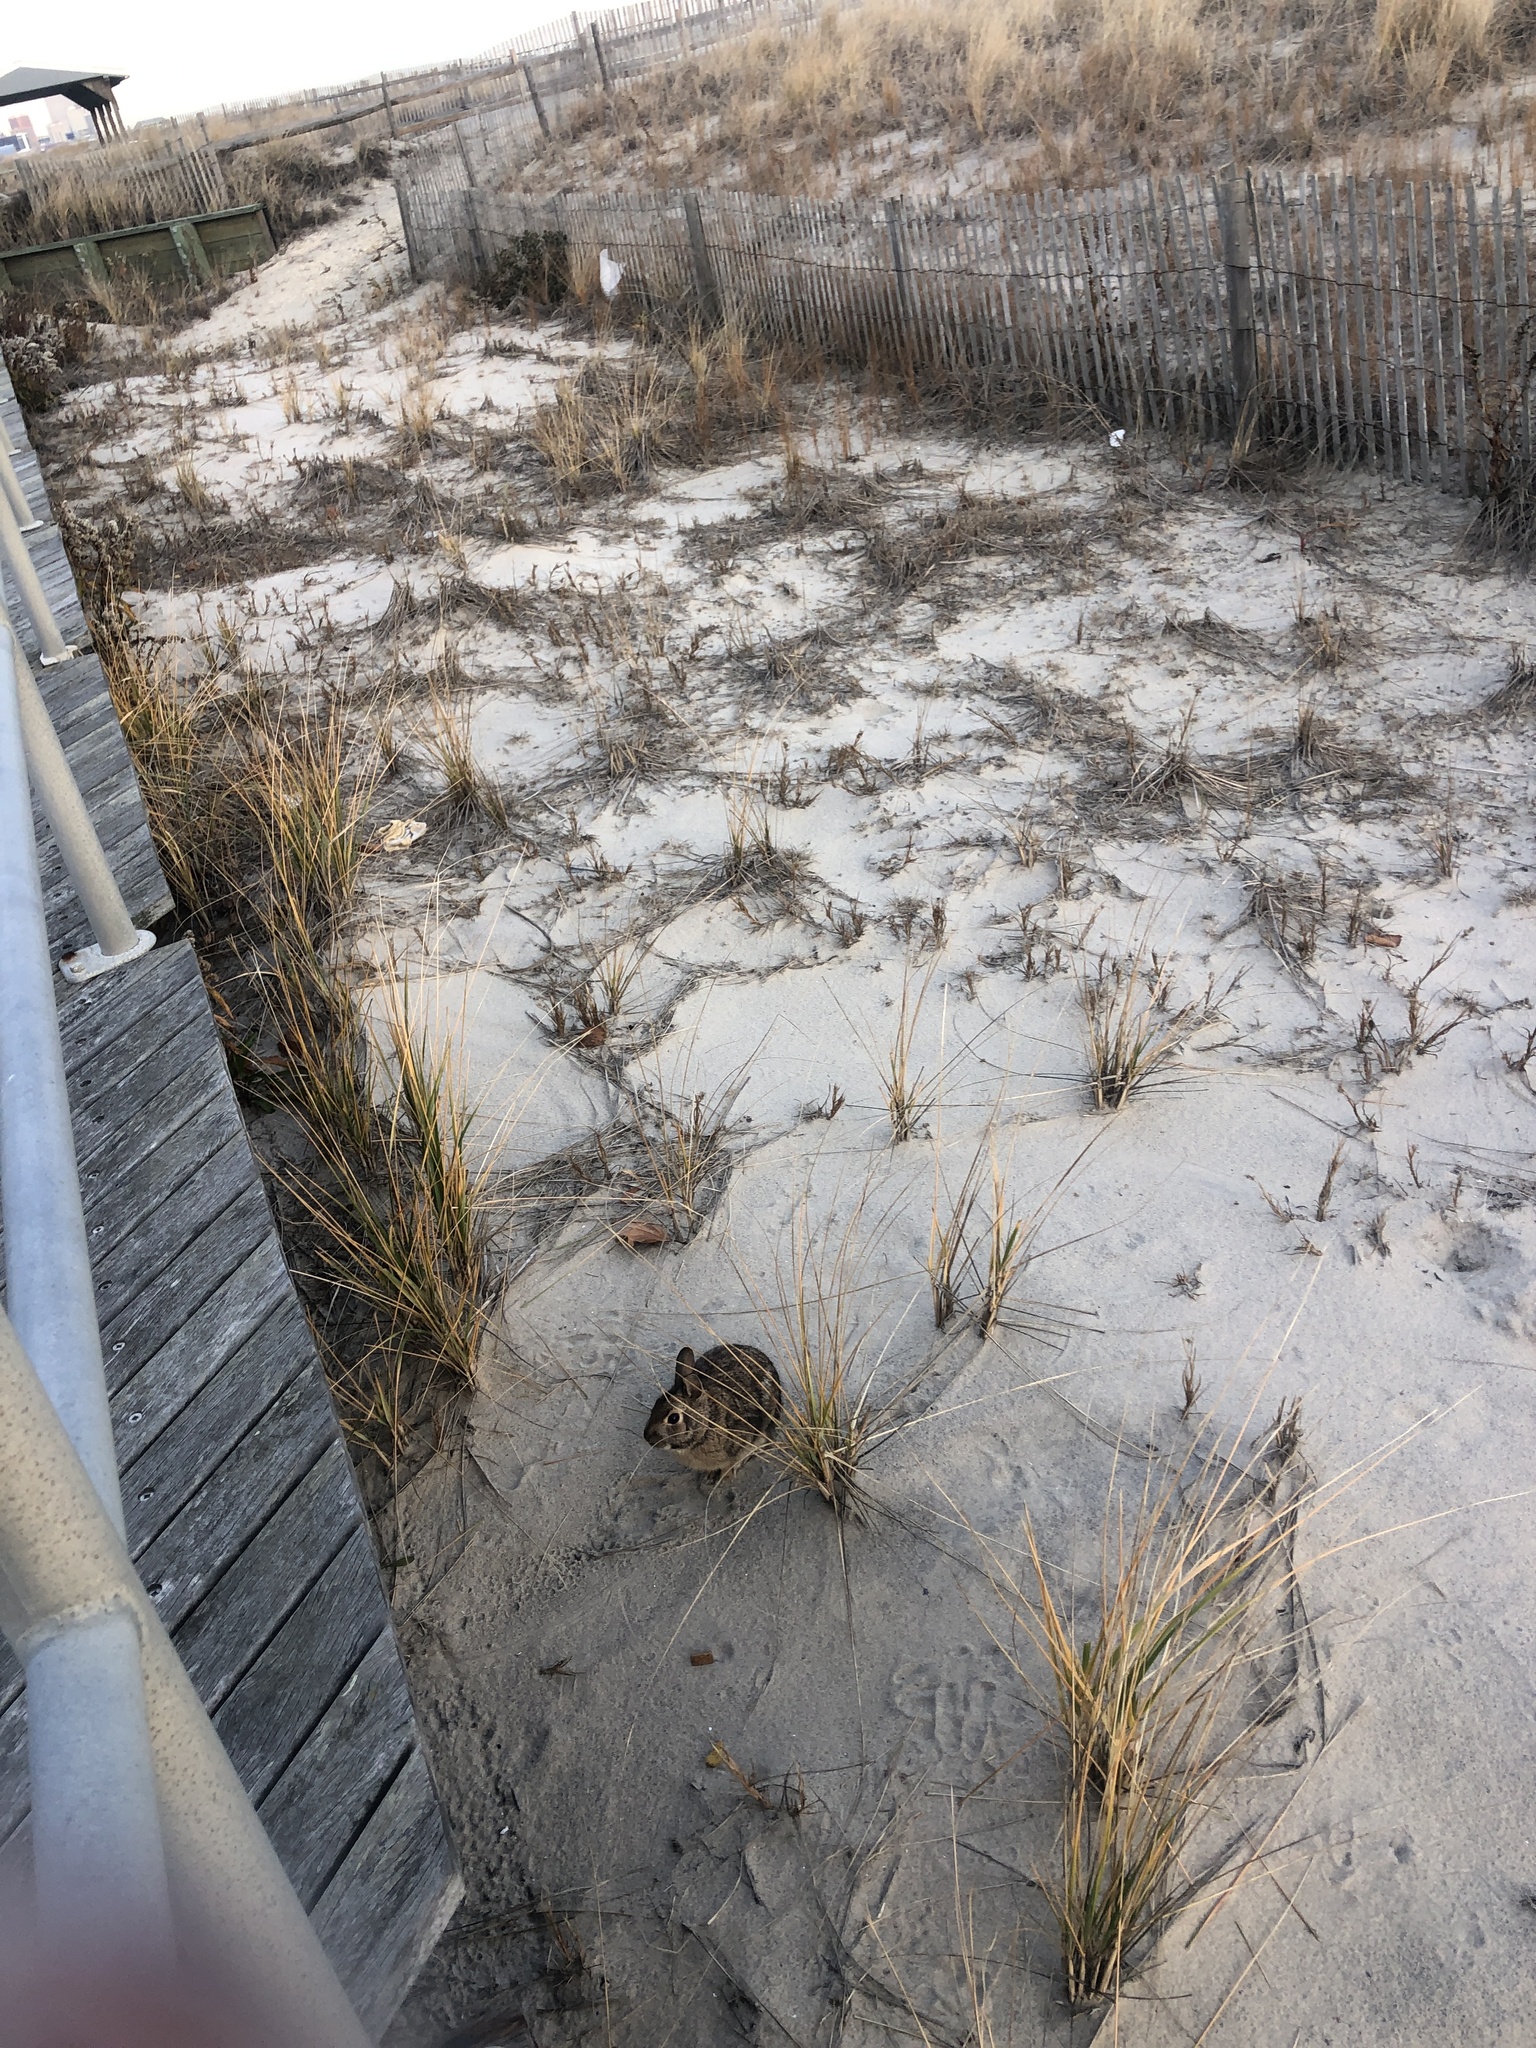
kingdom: Animalia
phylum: Chordata
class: Mammalia
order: Lagomorpha
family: Leporidae
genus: Sylvilagus
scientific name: Sylvilagus floridanus
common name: Eastern cottontail
